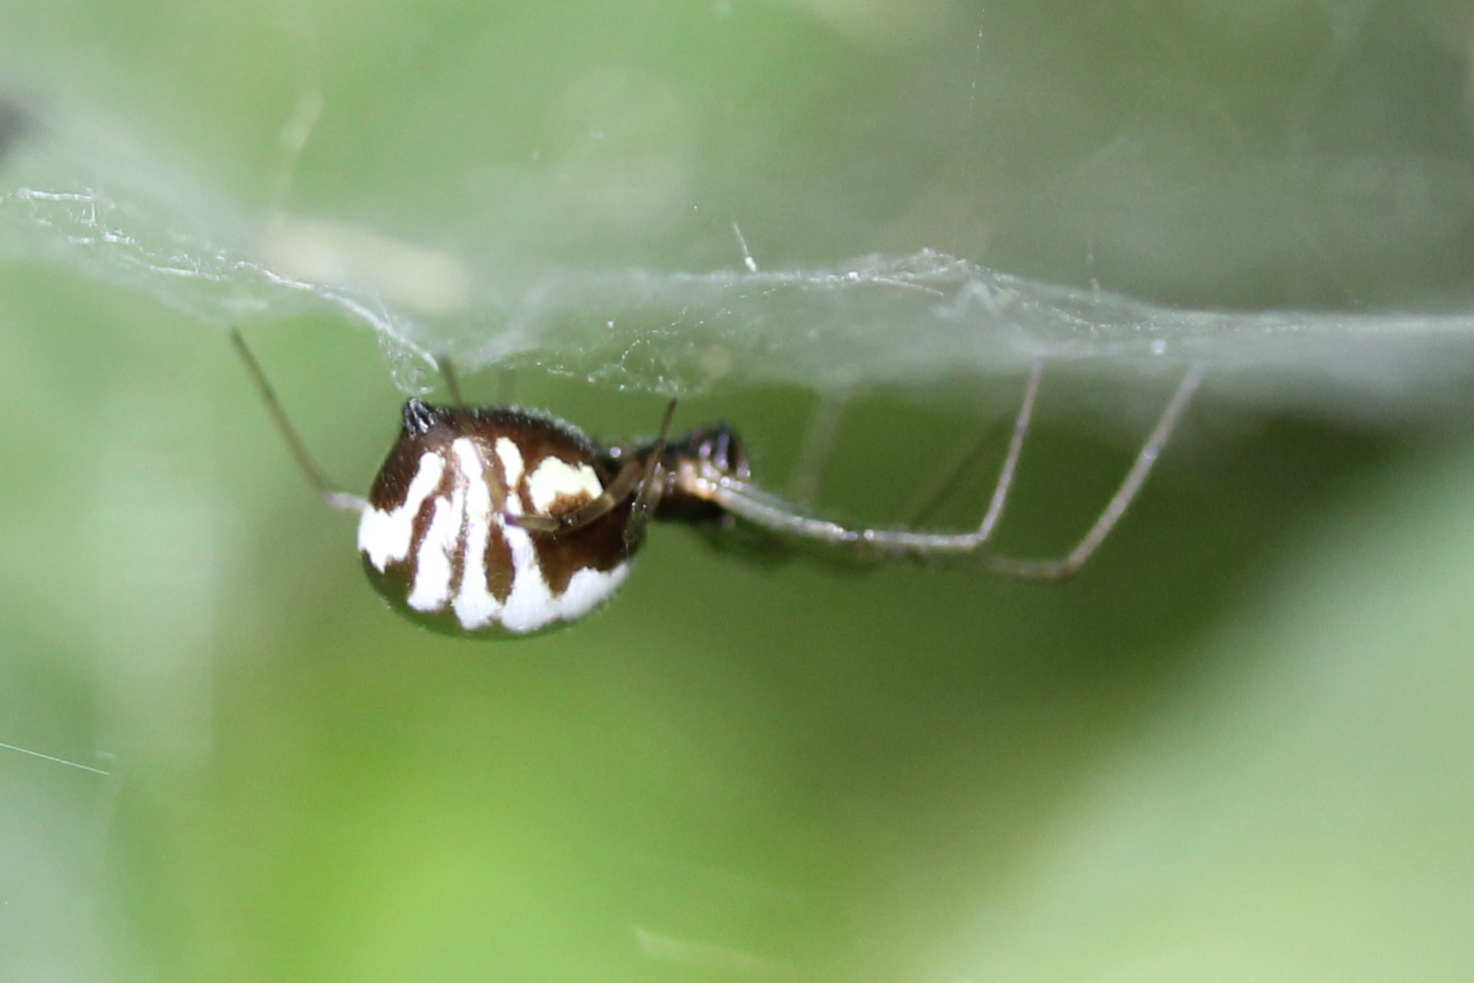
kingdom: Animalia
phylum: Arthropoda
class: Arachnida
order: Araneae
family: Linyphiidae
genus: Frontinella
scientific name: Frontinella pyramitela
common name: Bowl-and-doily spider
